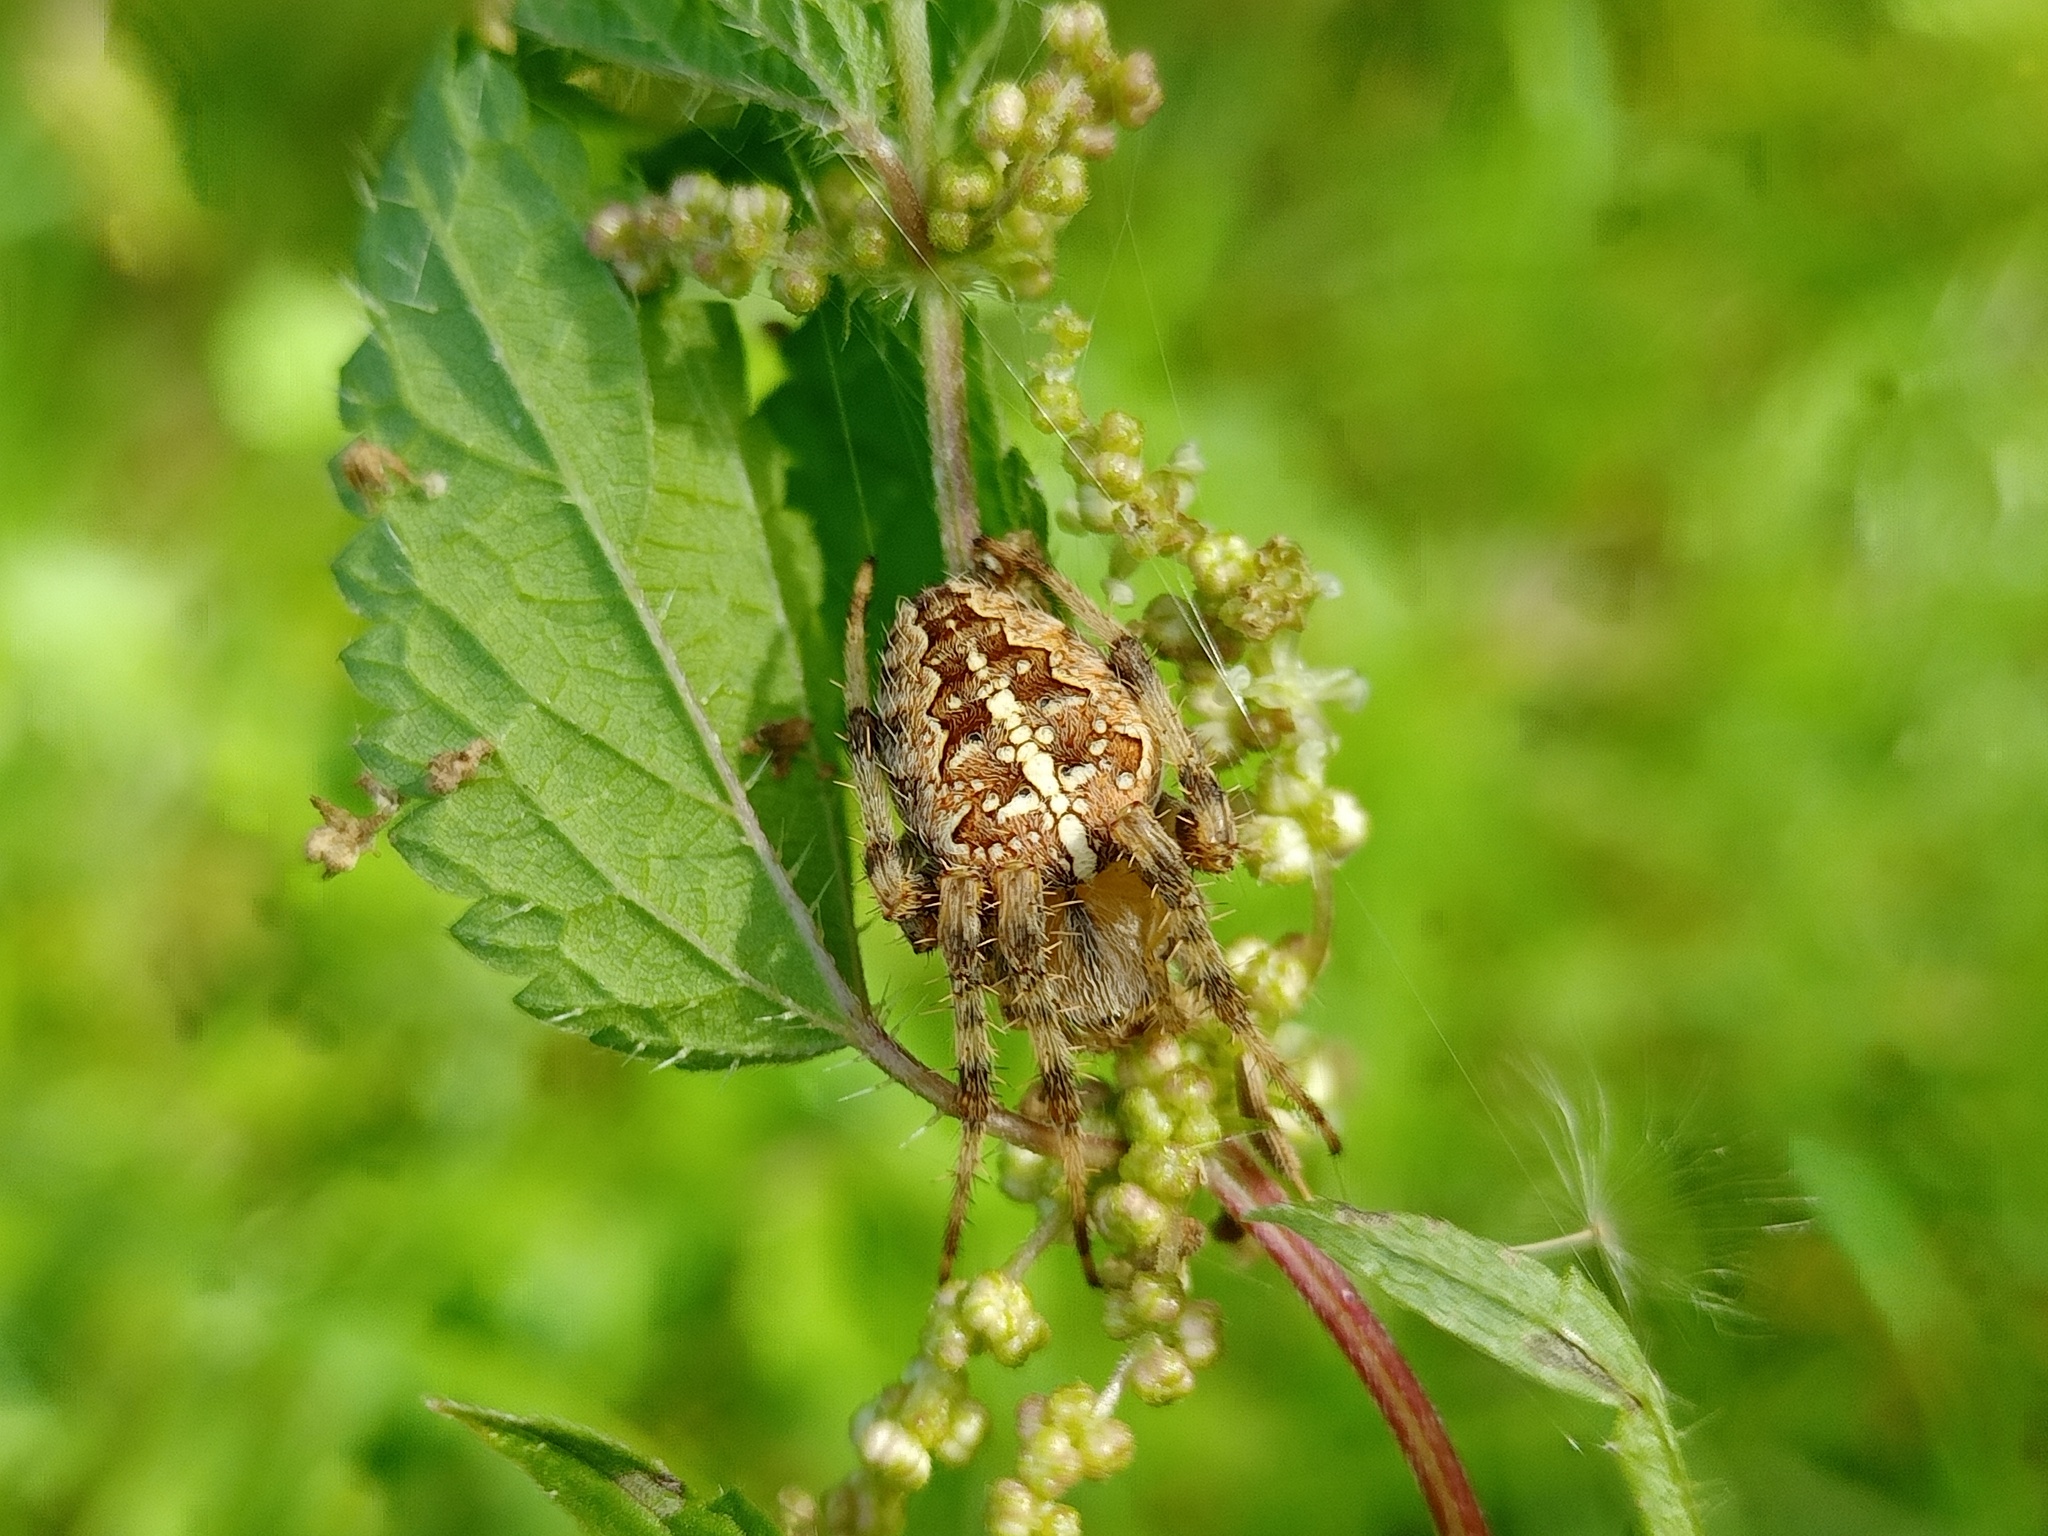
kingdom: Animalia
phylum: Arthropoda
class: Arachnida
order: Araneae
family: Araneidae
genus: Araneus
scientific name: Araneus diadematus
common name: Cross orbweaver
